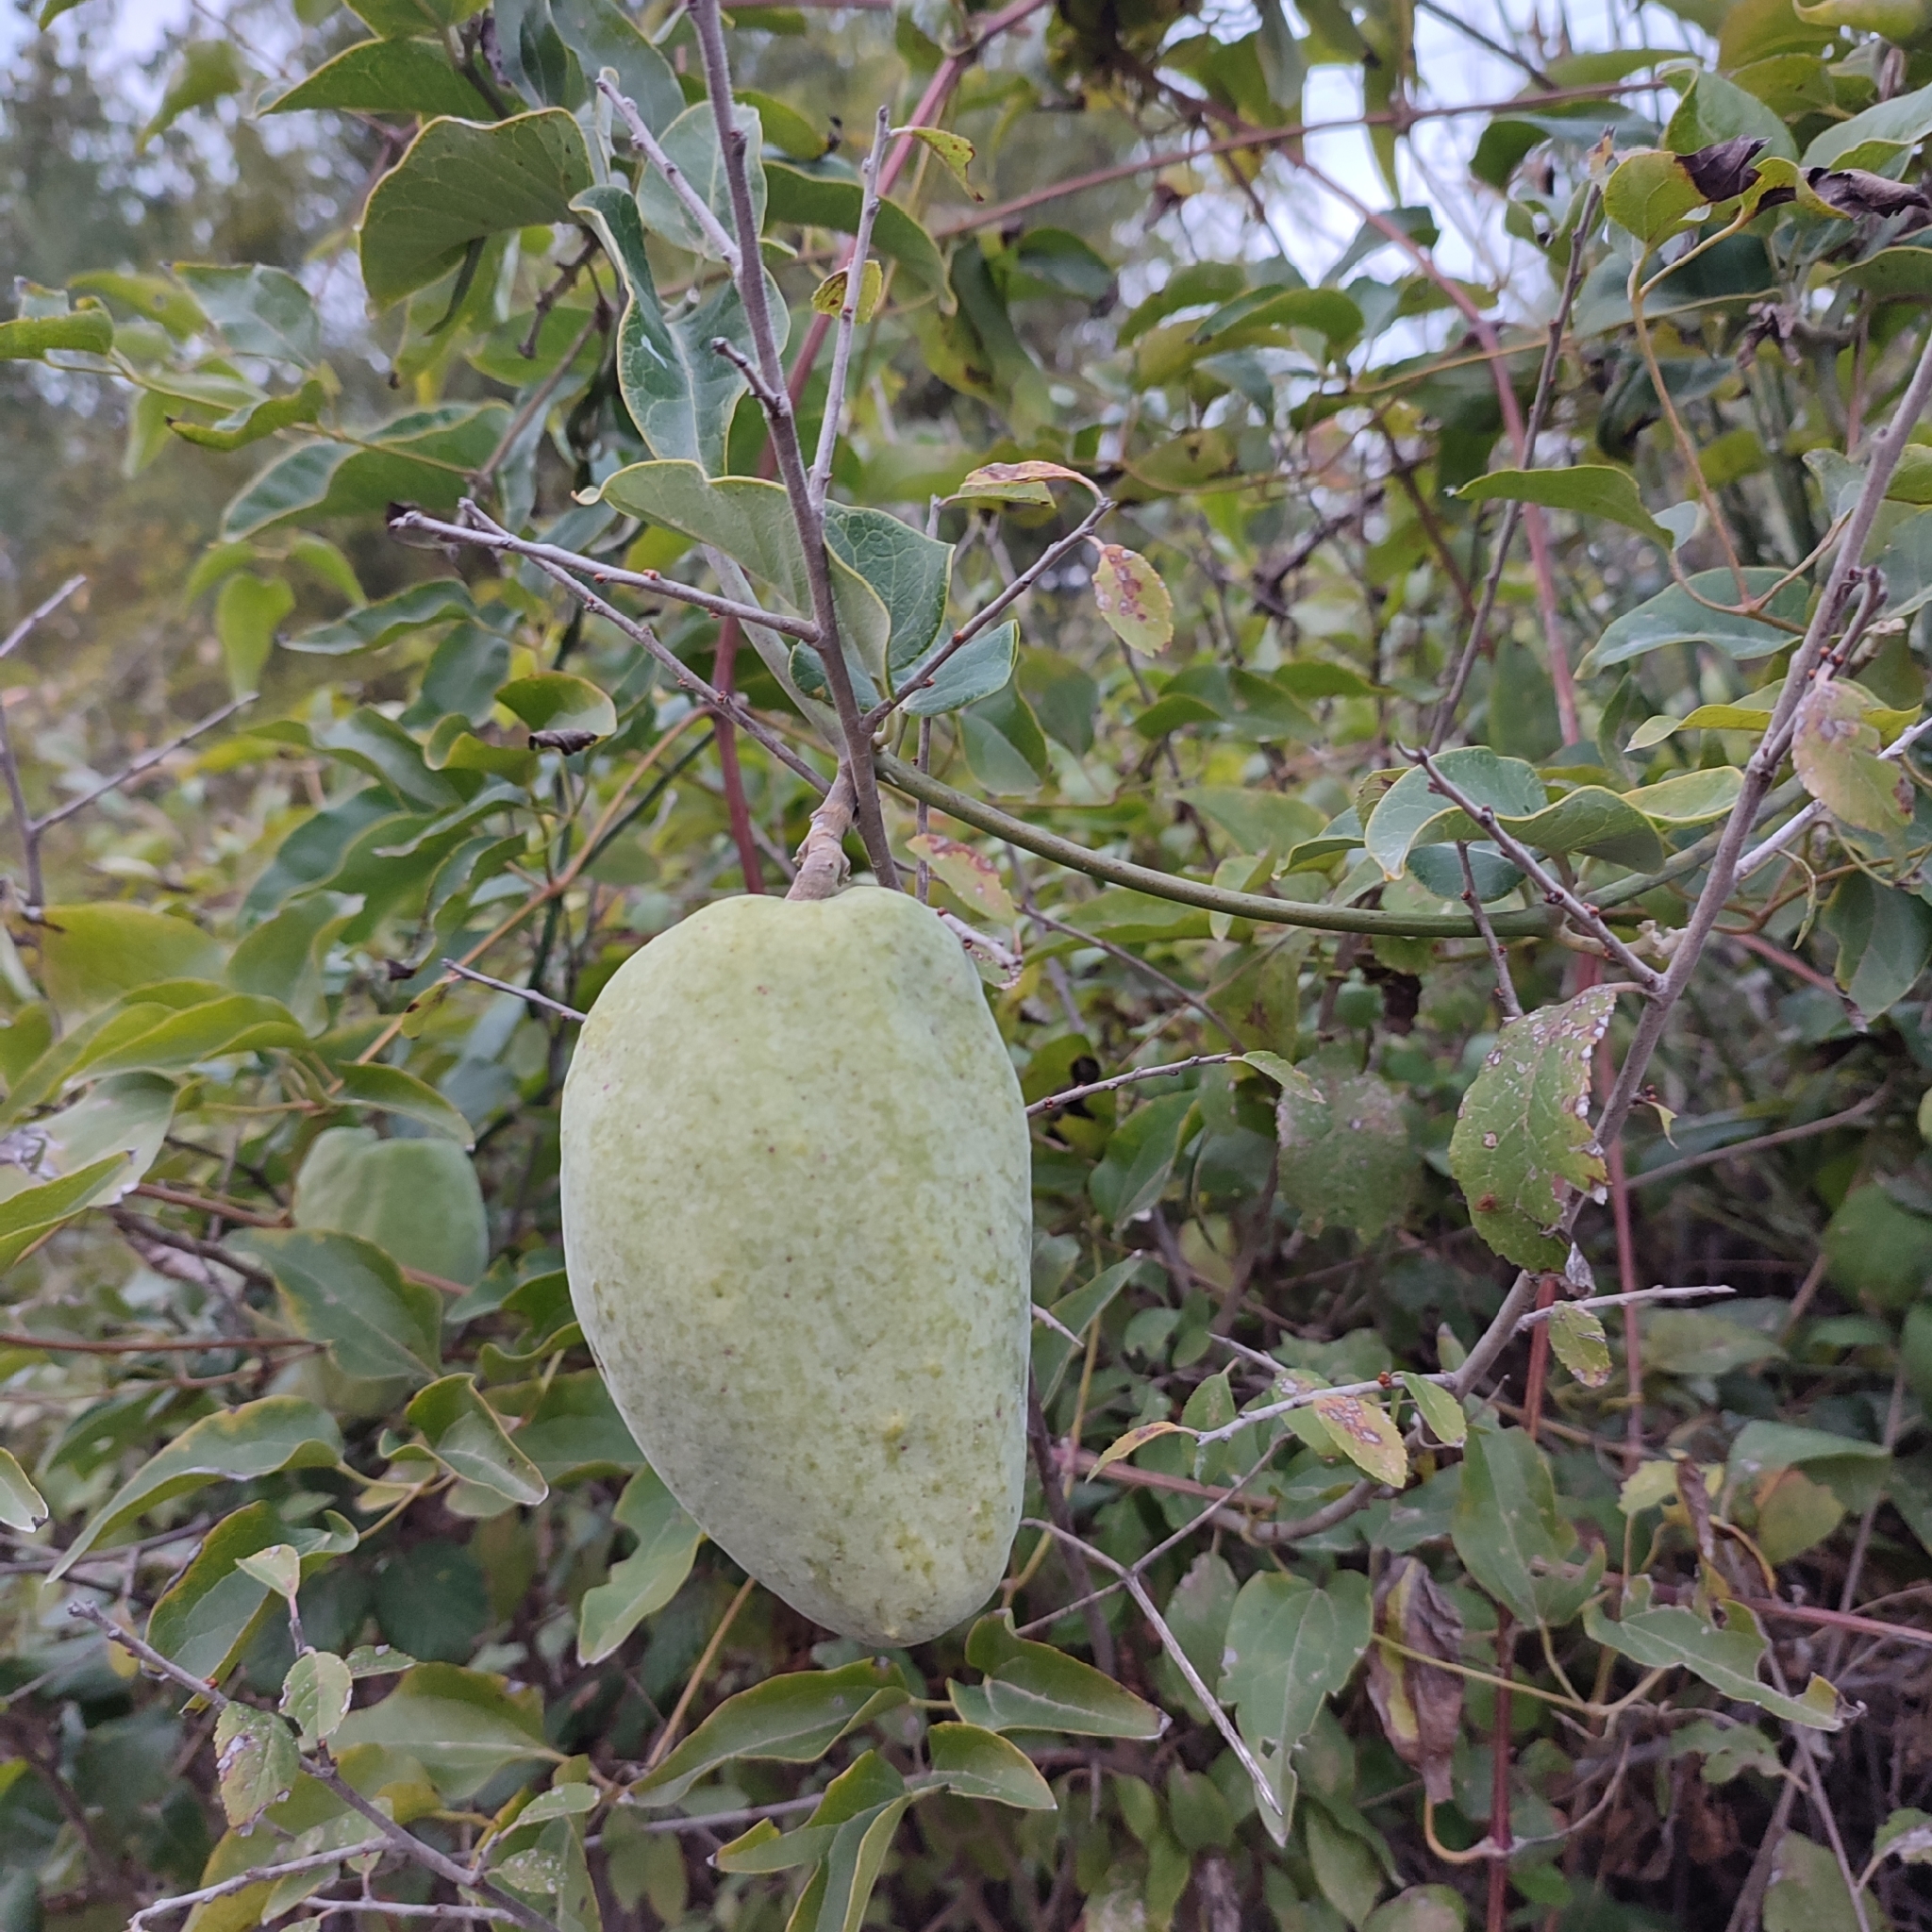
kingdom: Plantae
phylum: Tracheophyta
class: Magnoliopsida
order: Gentianales
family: Apocynaceae
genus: Araujia
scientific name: Araujia sericifera
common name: White bladderflower
